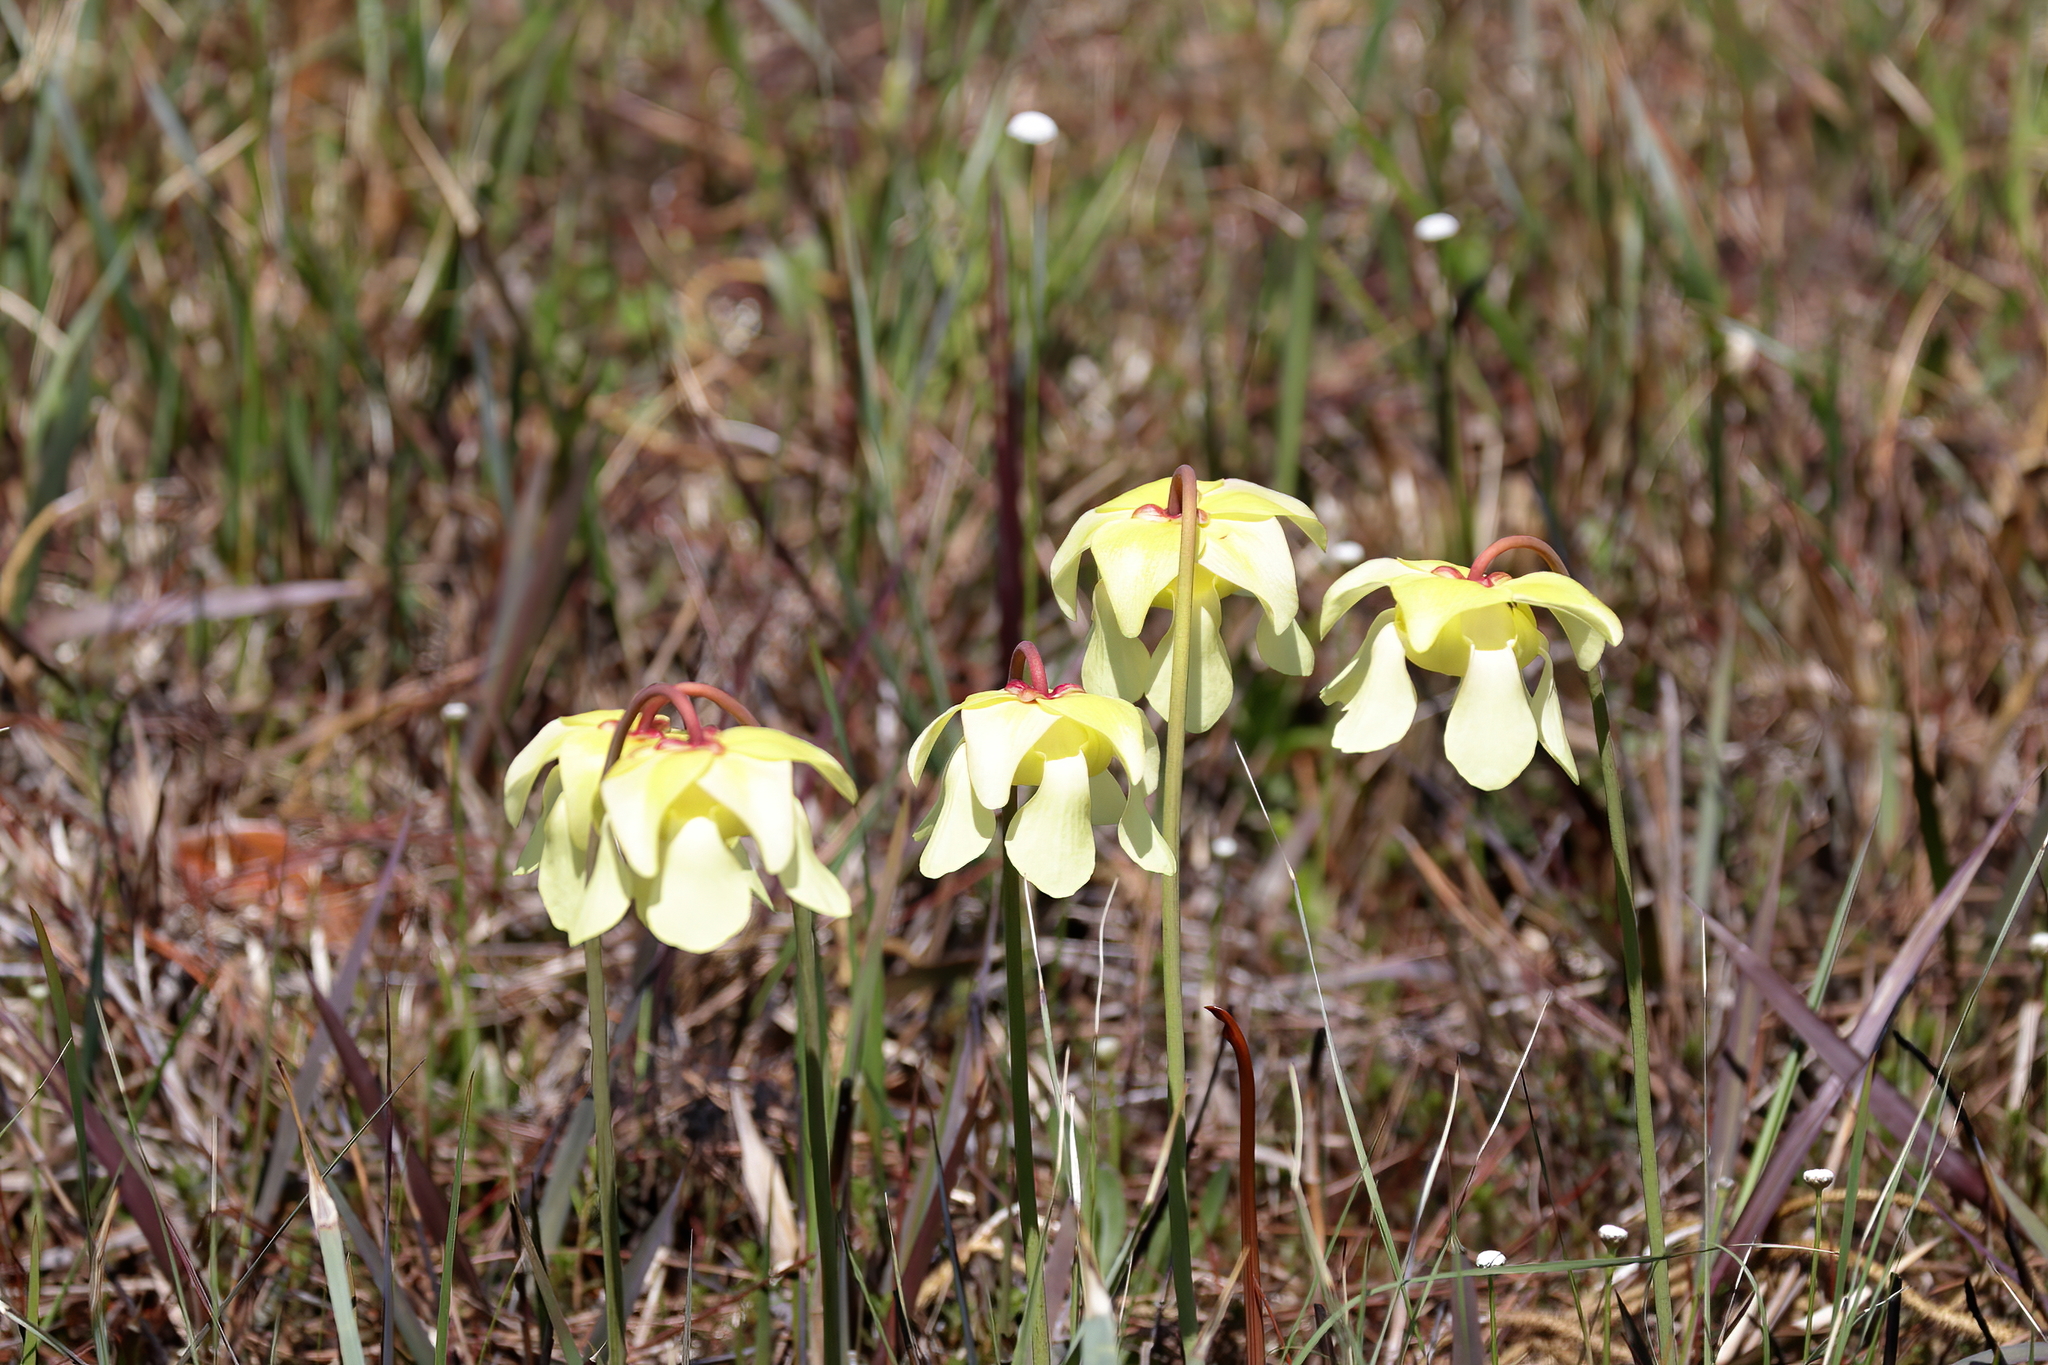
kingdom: Plantae
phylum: Tracheophyta
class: Magnoliopsida
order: Ericales
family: Sarraceniaceae
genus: Sarracenia
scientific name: Sarracenia alata
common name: Yellow trumpets
